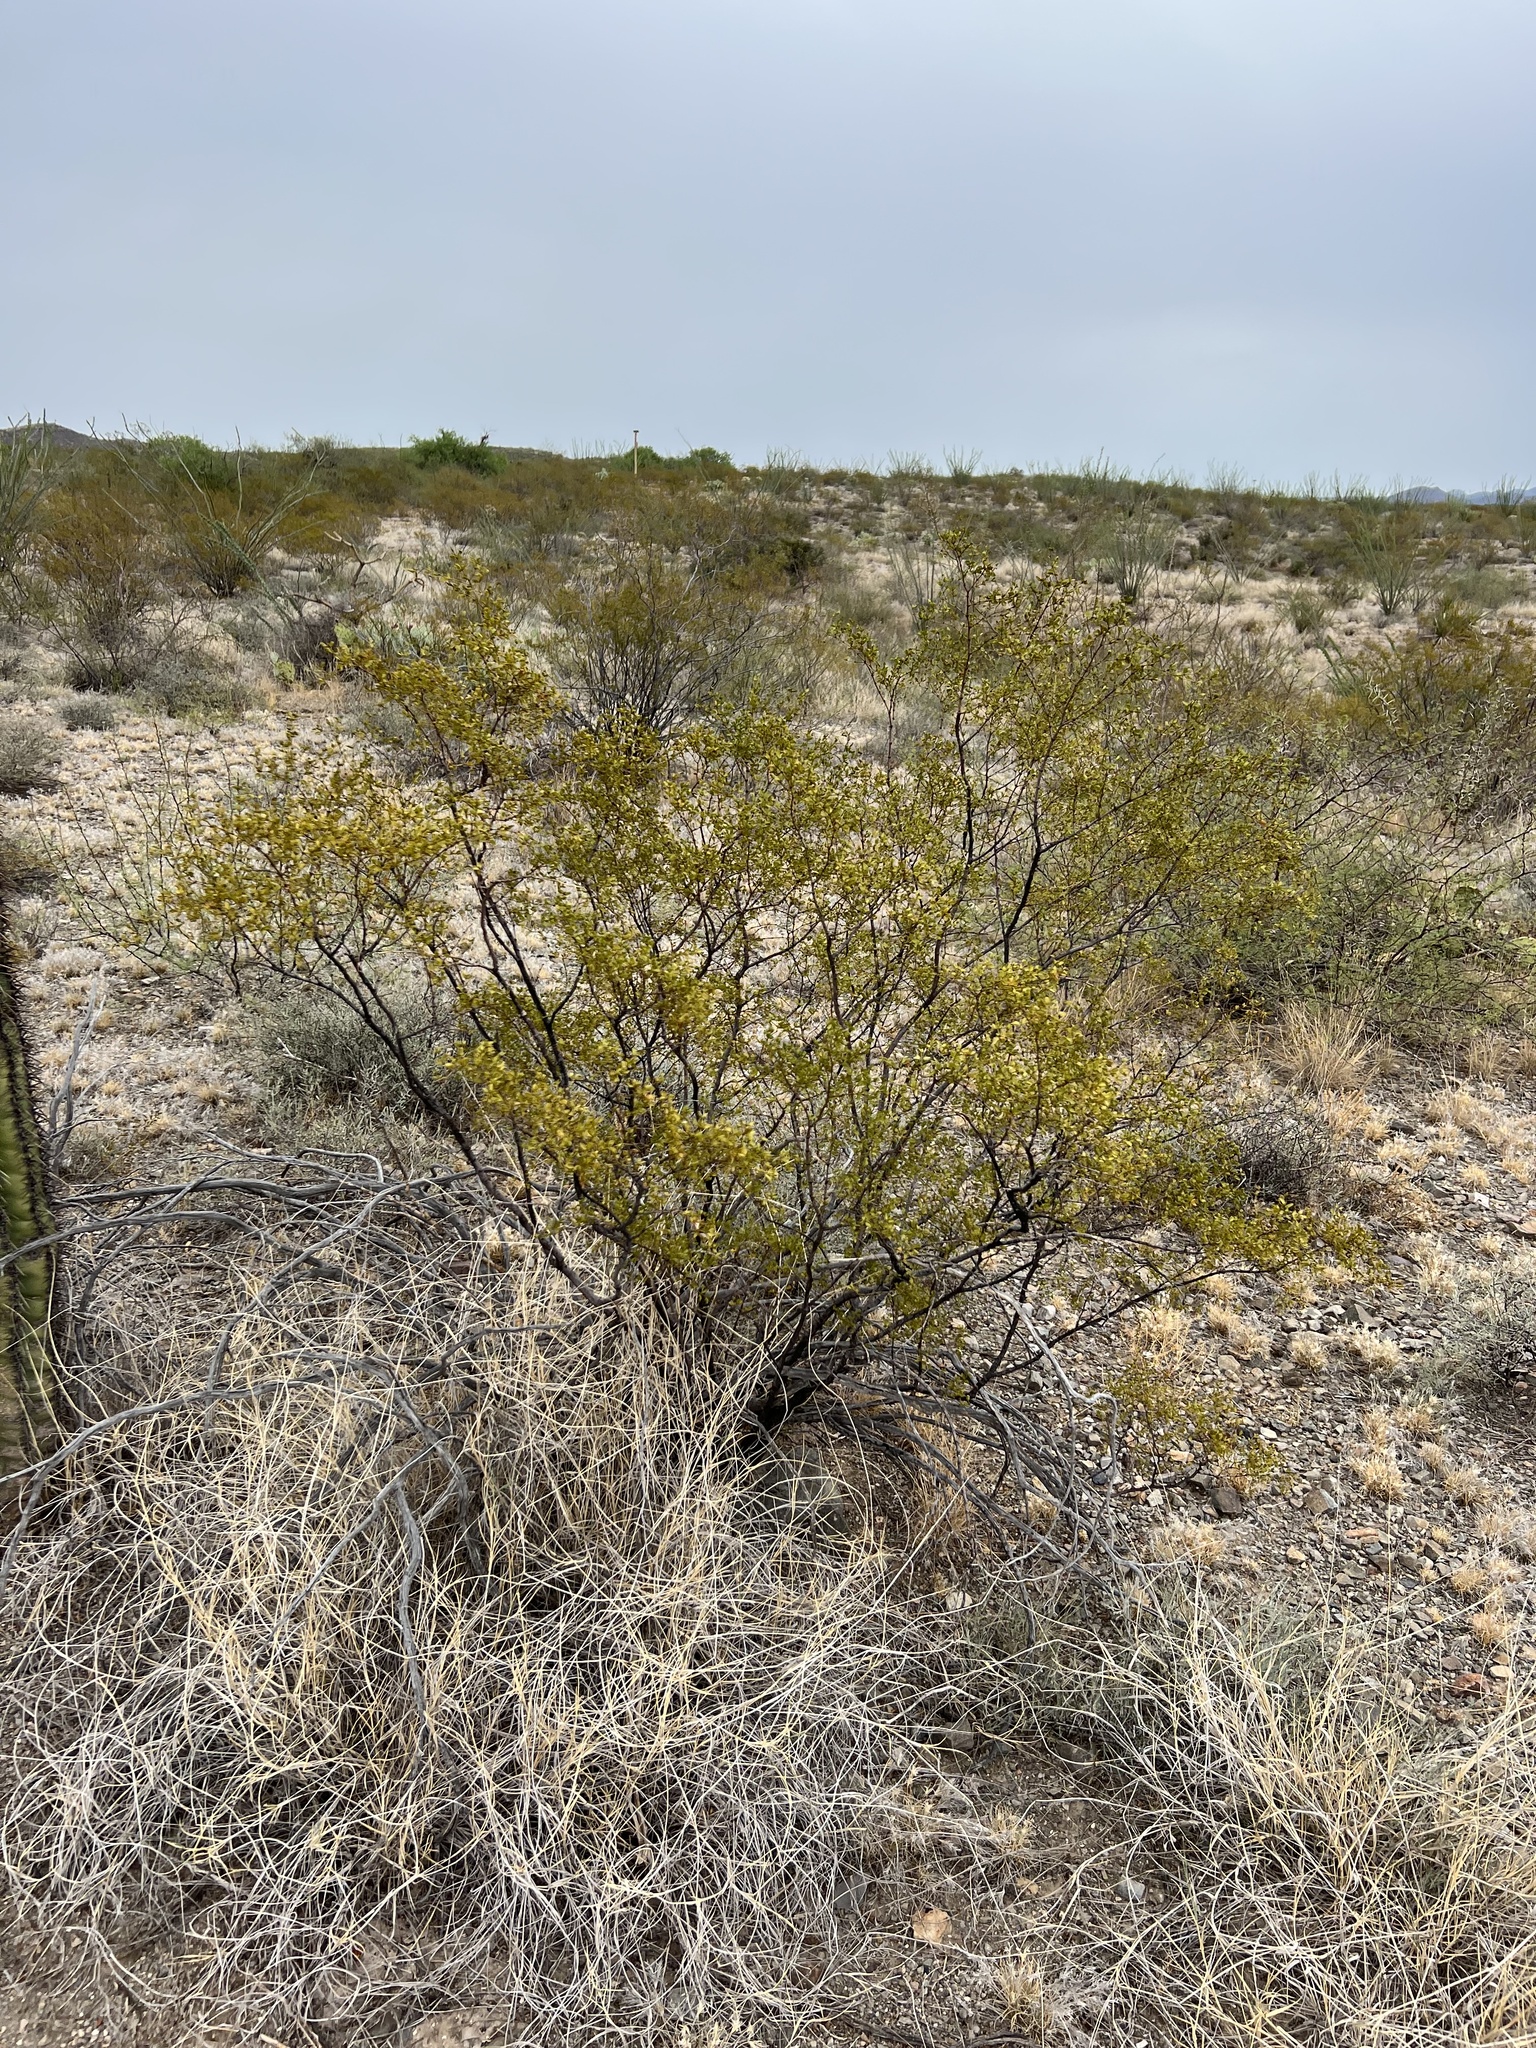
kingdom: Plantae
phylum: Tracheophyta
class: Magnoliopsida
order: Zygophyllales
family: Zygophyllaceae
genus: Larrea
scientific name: Larrea tridentata
